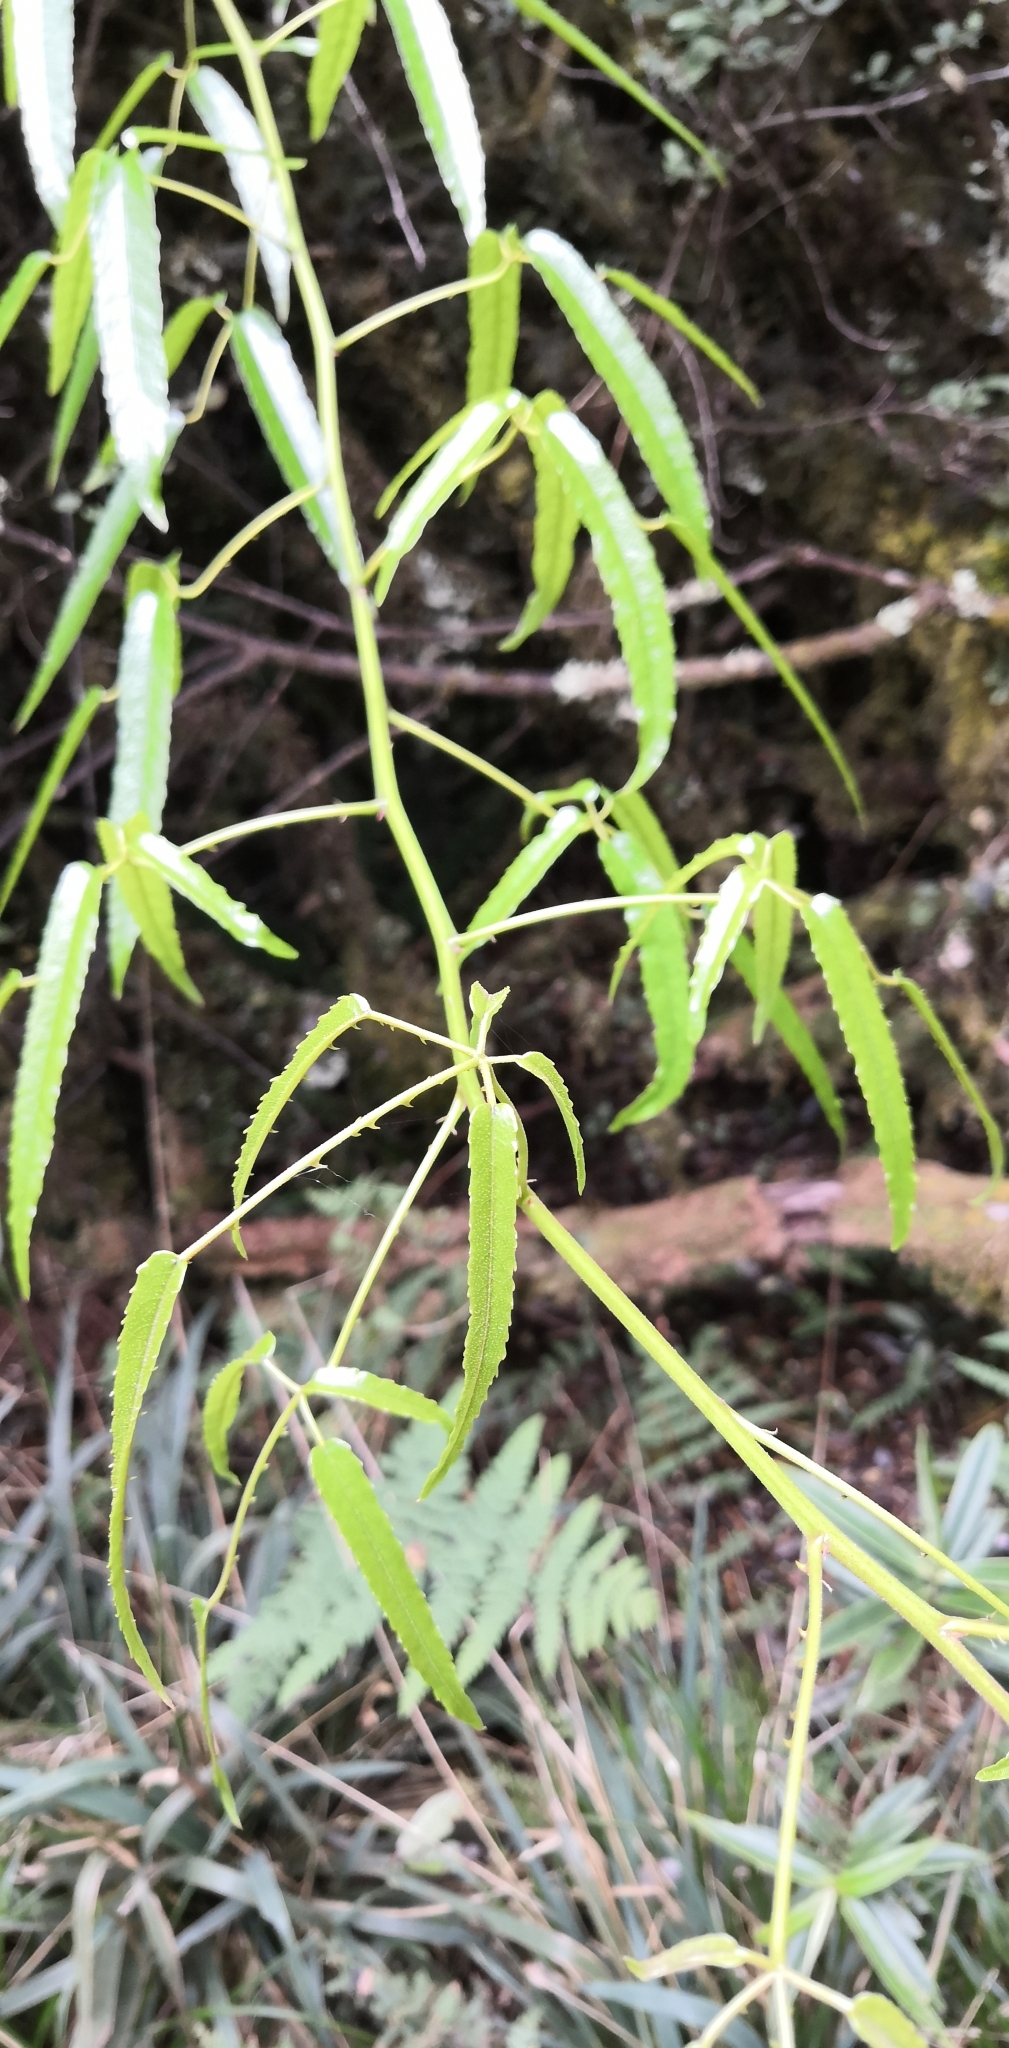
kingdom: Plantae
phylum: Tracheophyta
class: Magnoliopsida
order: Rosales
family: Rosaceae
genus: Rubus
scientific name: Rubus cissoides
